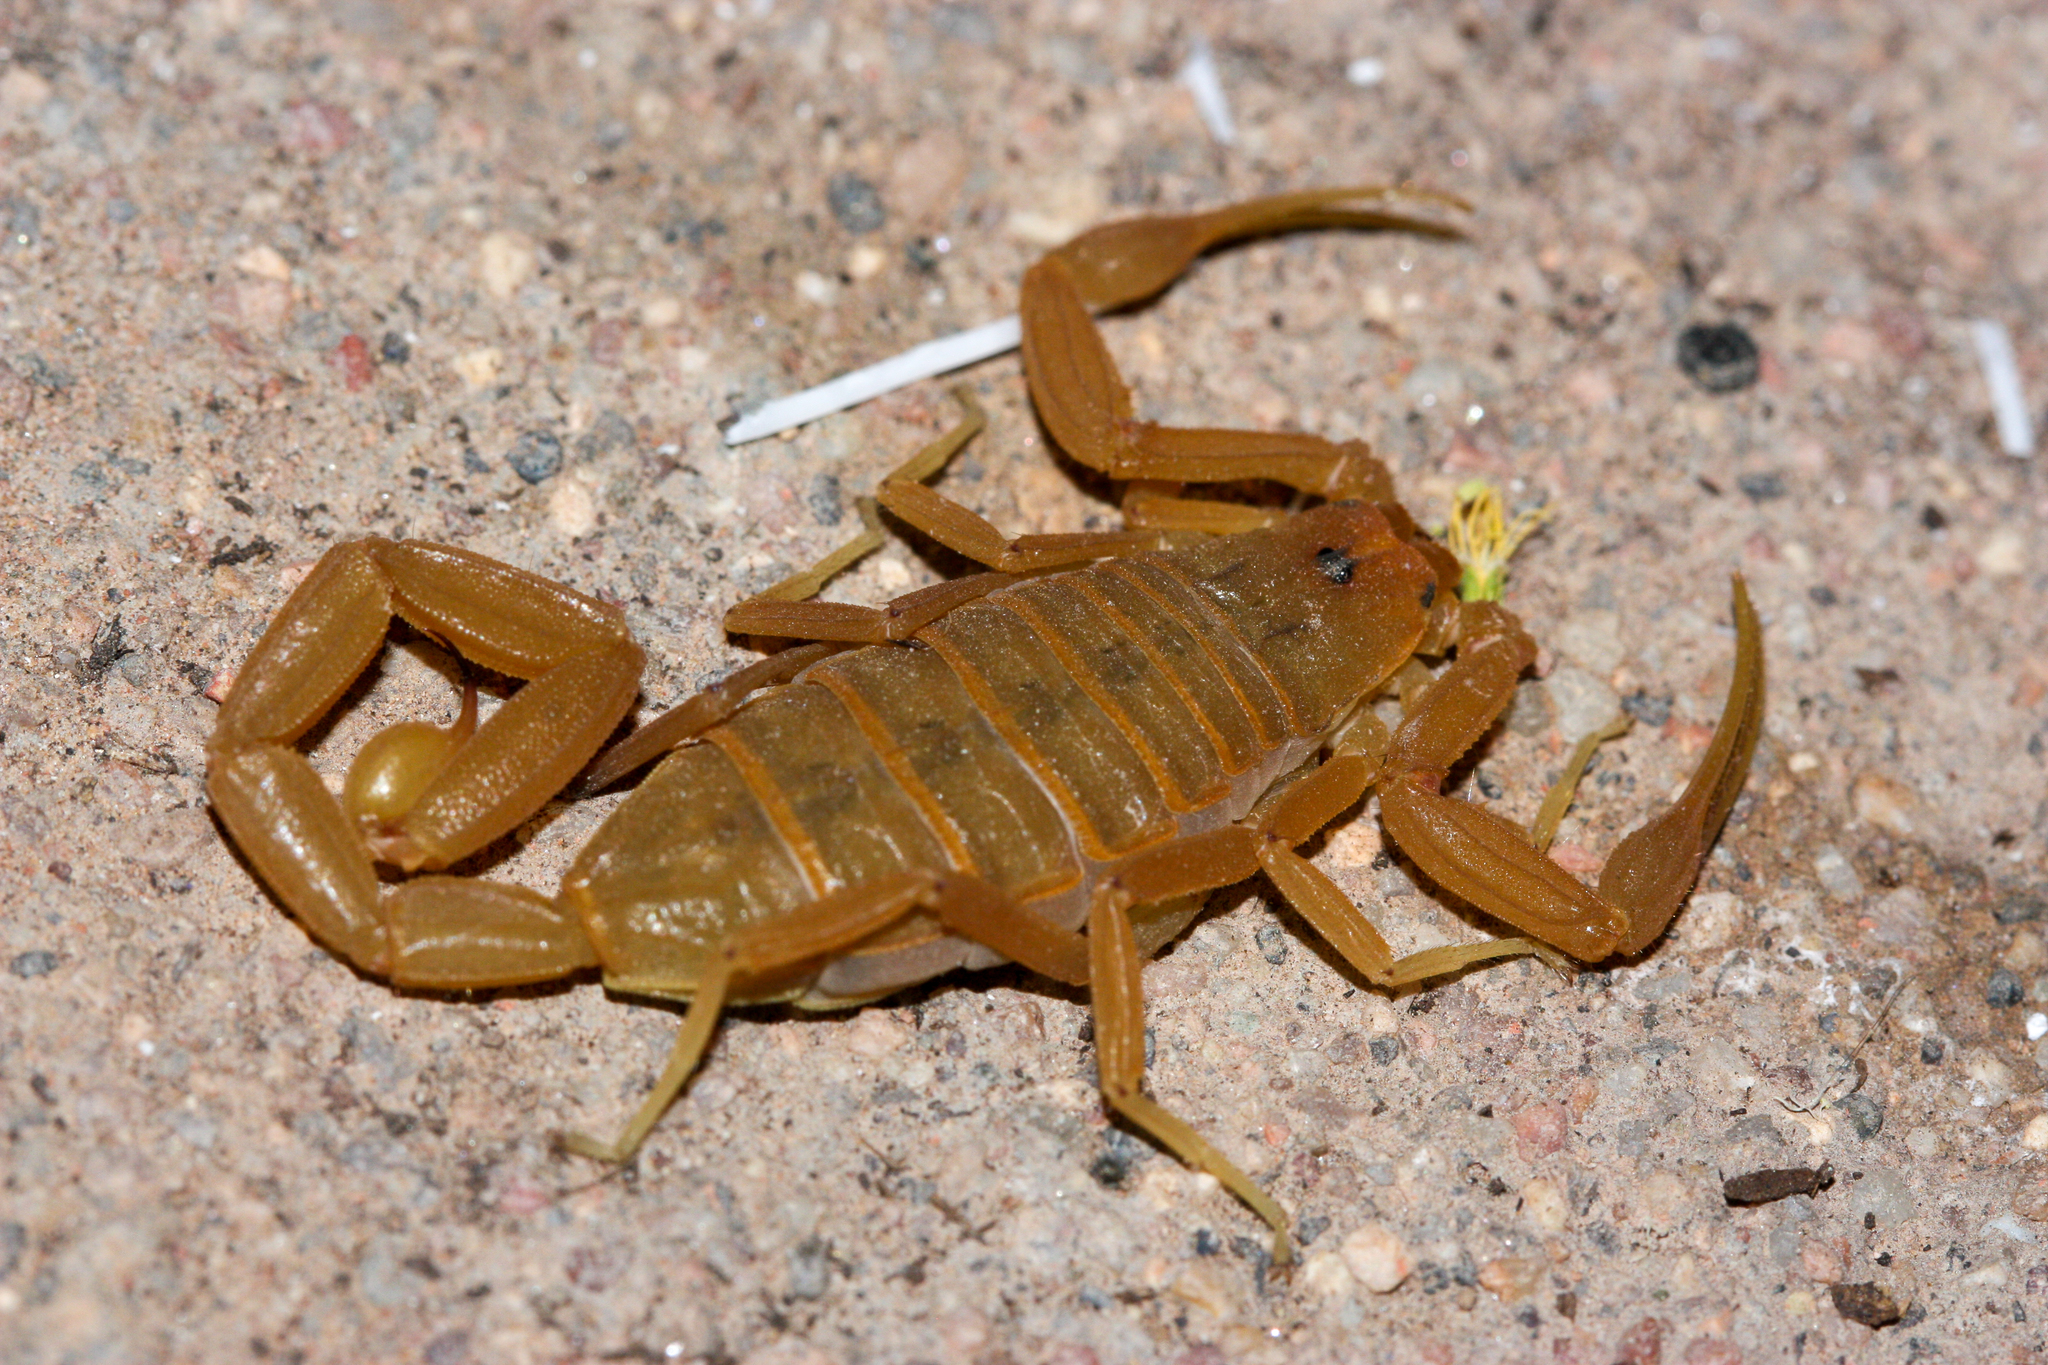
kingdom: Animalia
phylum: Arthropoda
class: Arachnida
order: Scorpiones
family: Buthidae
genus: Centruroides
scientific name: Centruroides sculpturatus
